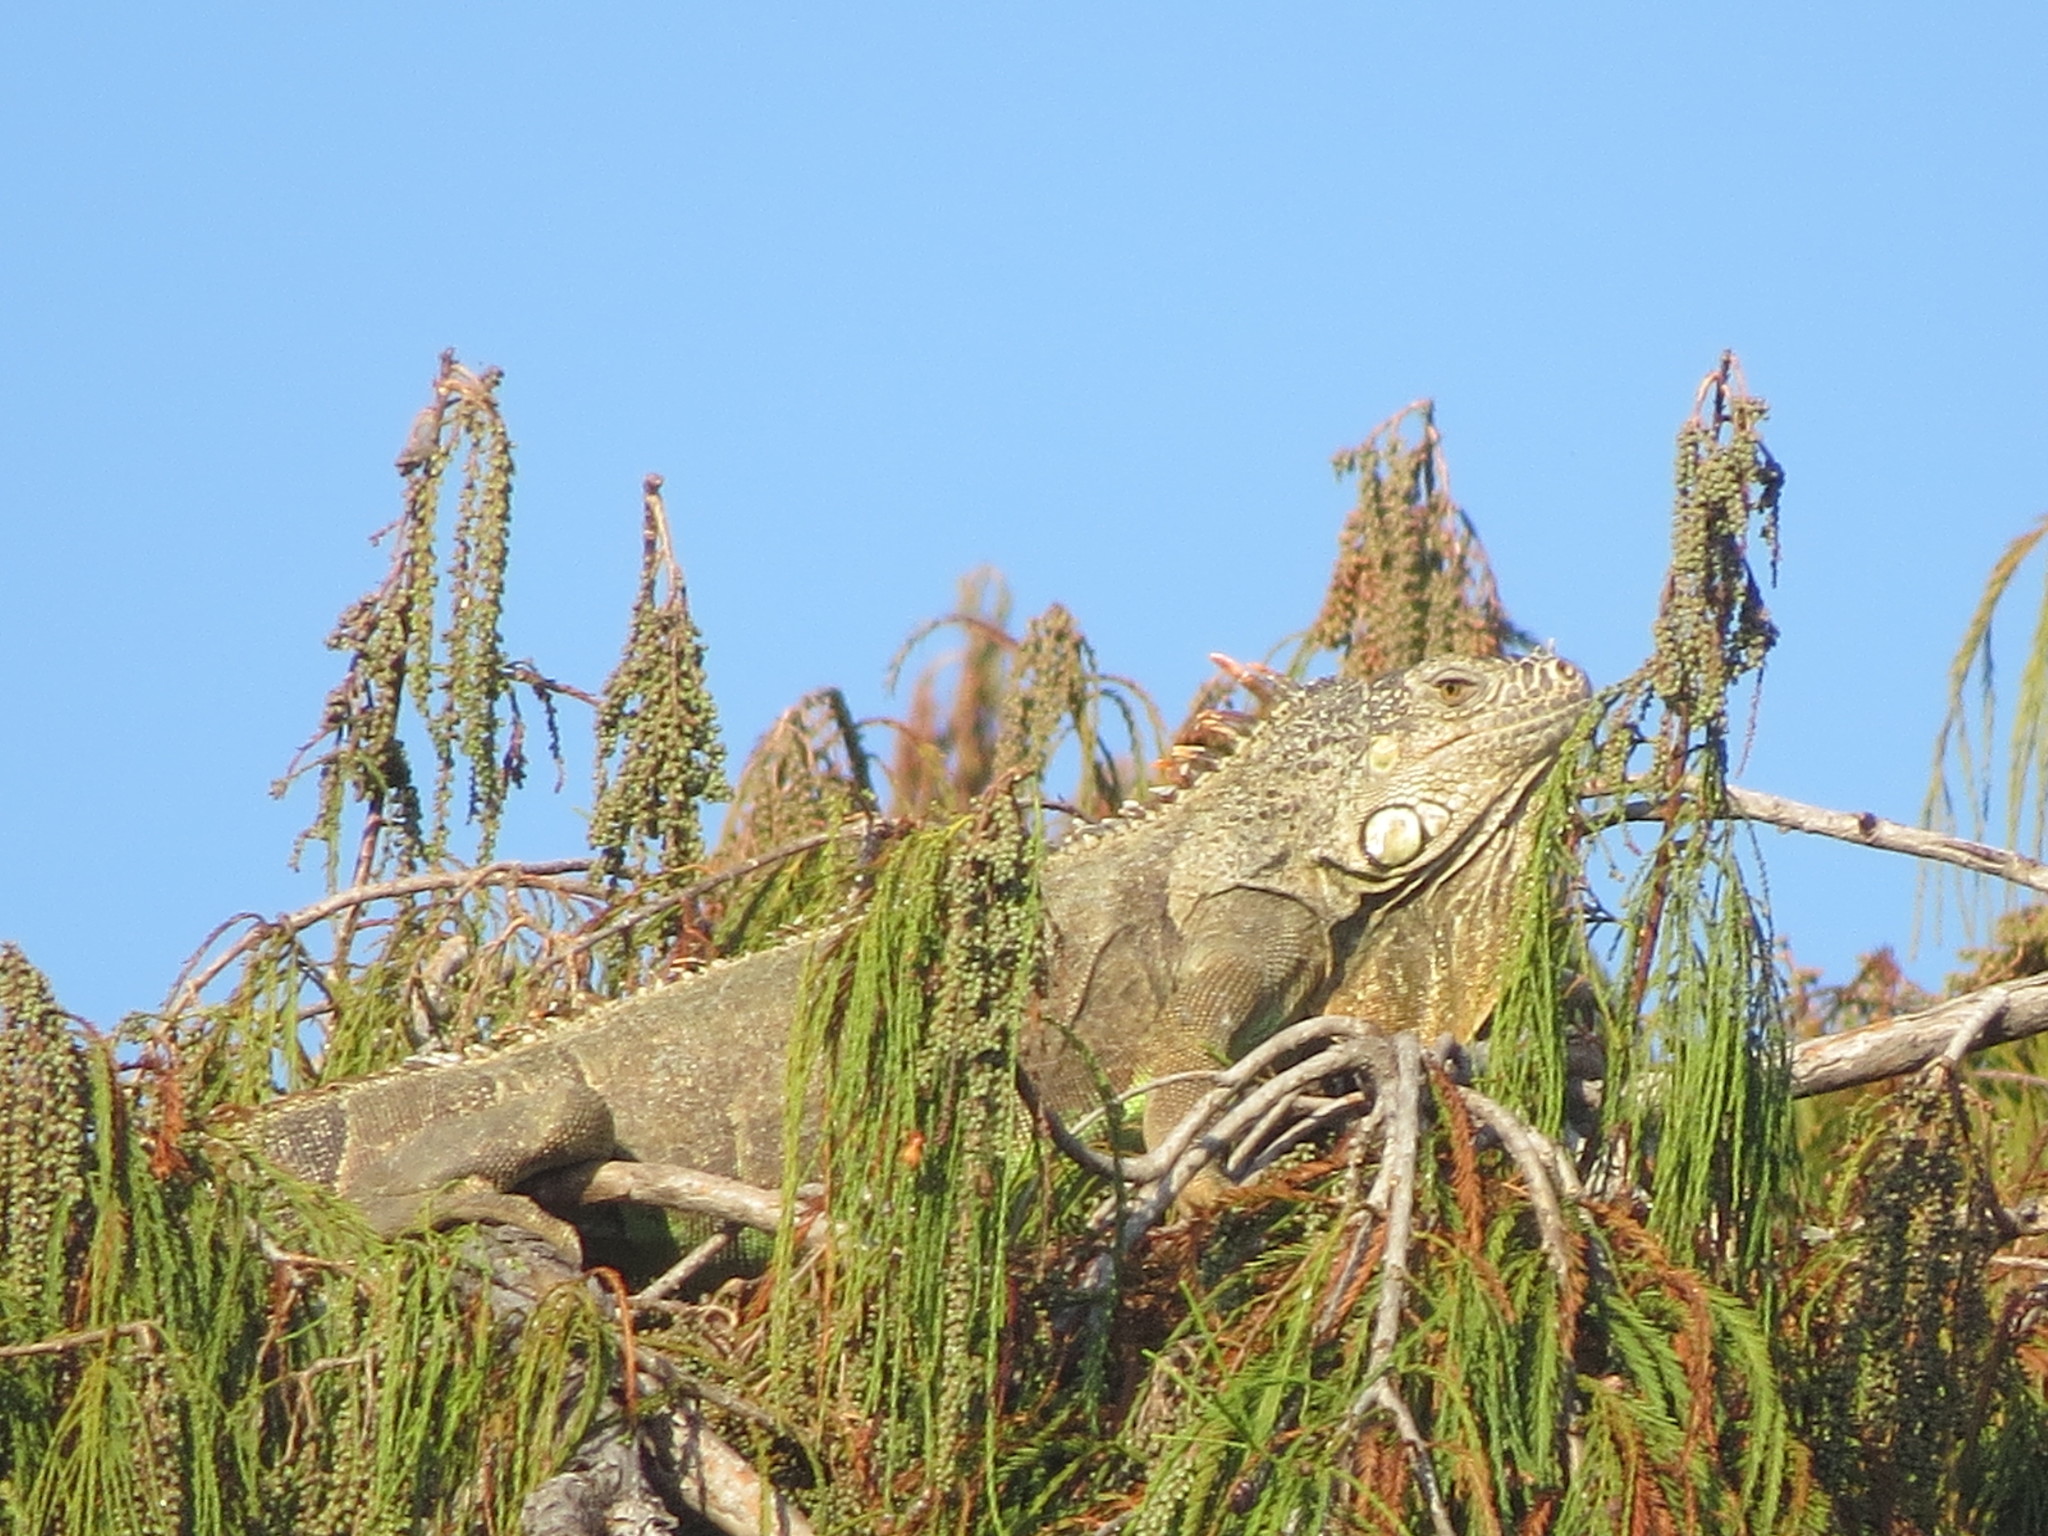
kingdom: Animalia
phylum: Chordata
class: Squamata
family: Iguanidae
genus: Iguana
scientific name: Iguana iguana
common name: Green iguana
